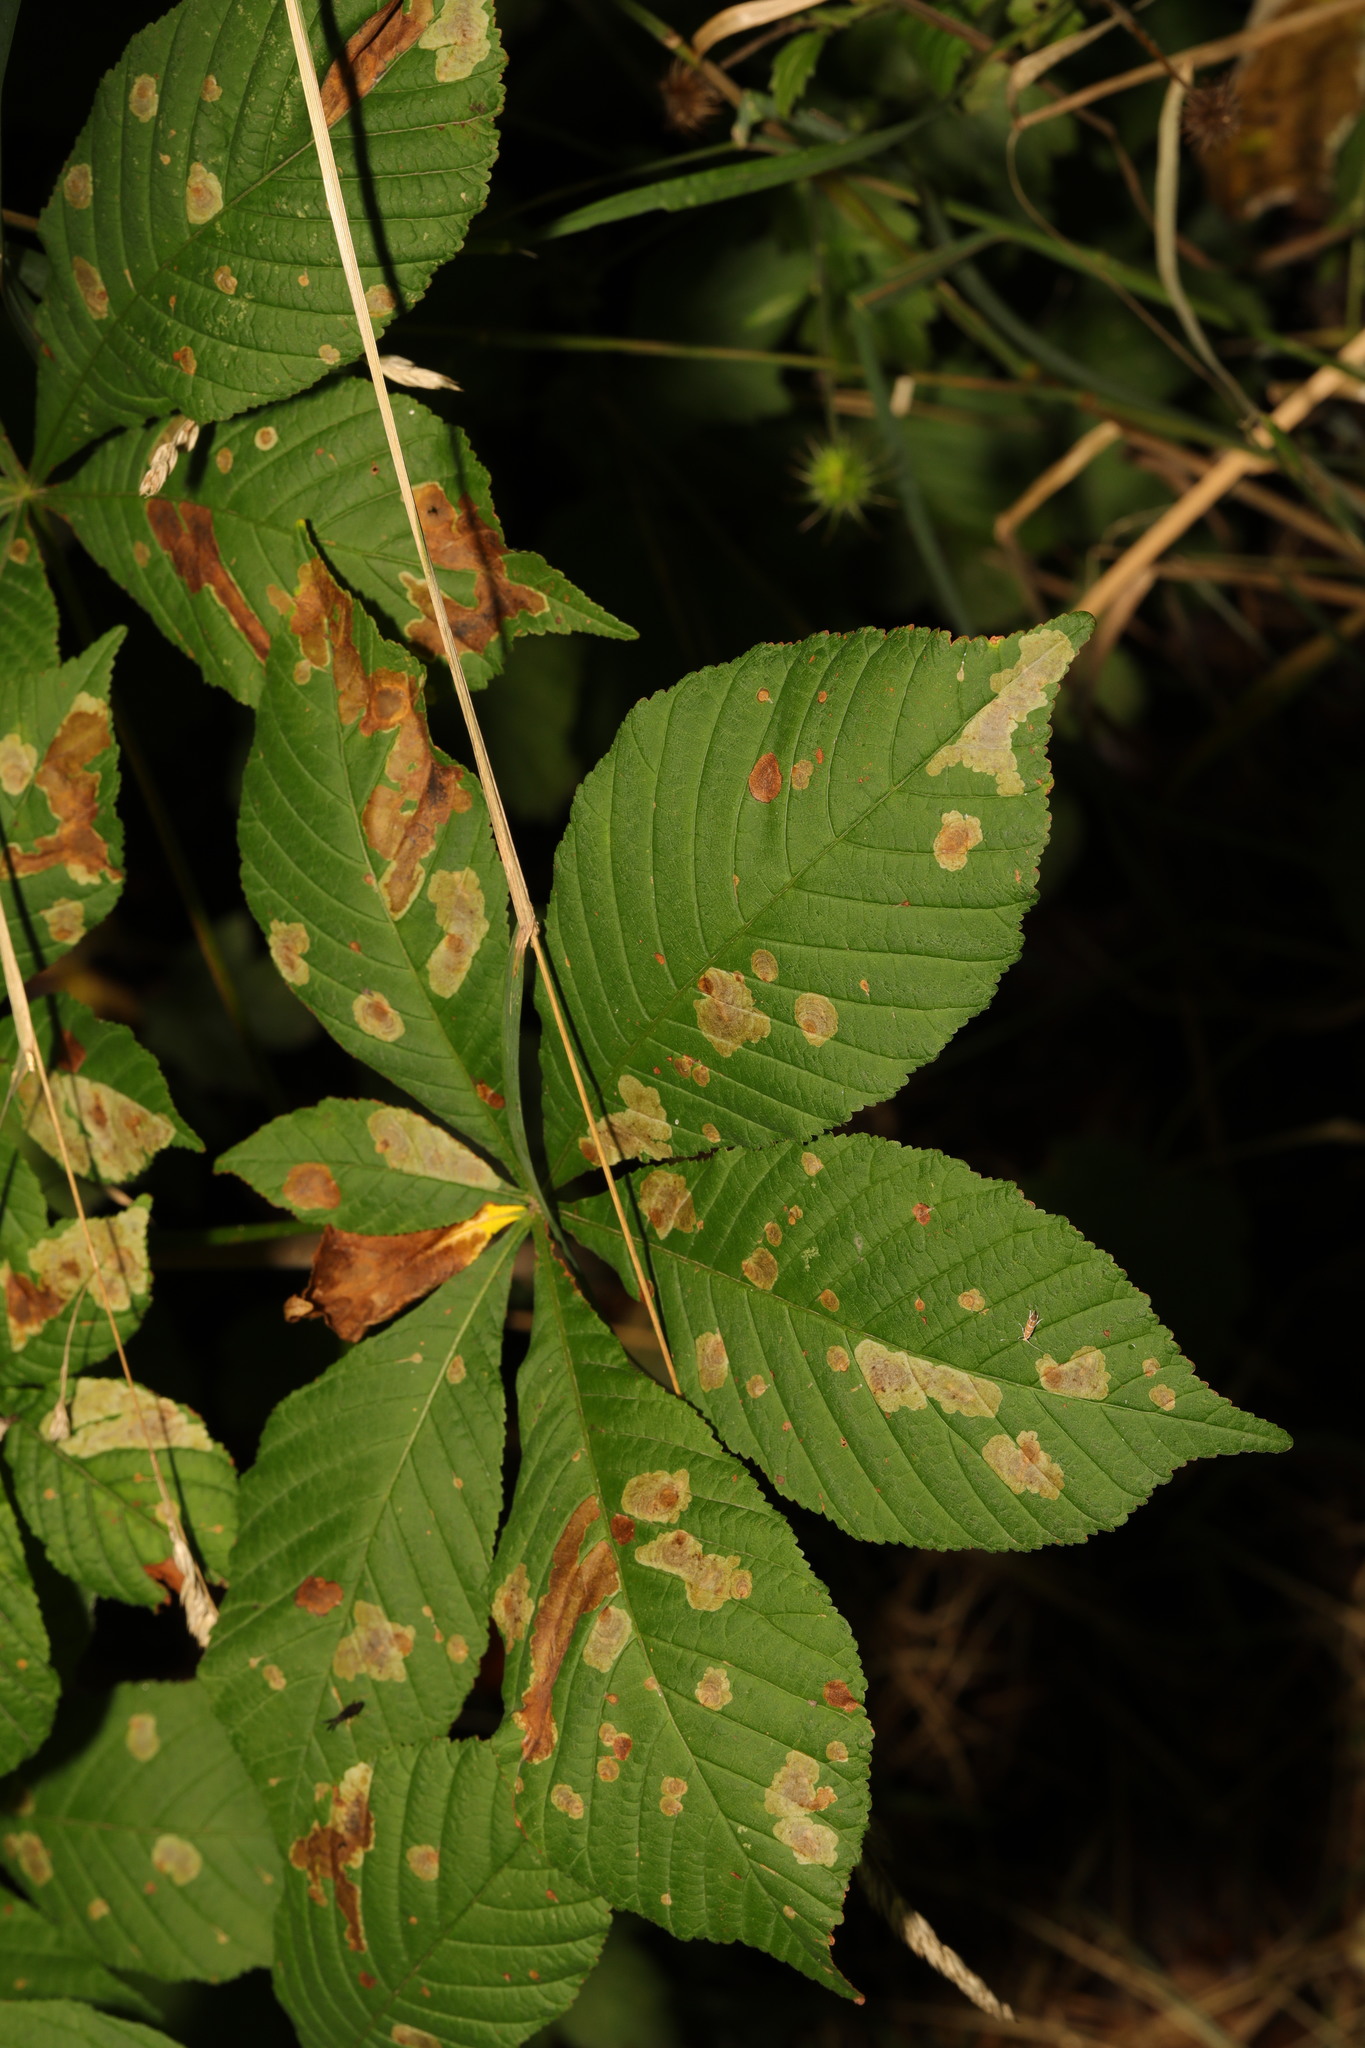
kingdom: Plantae
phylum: Tracheophyta
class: Magnoliopsida
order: Sapindales
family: Sapindaceae
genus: Aesculus
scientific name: Aesculus hippocastanum
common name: Horse-chestnut
